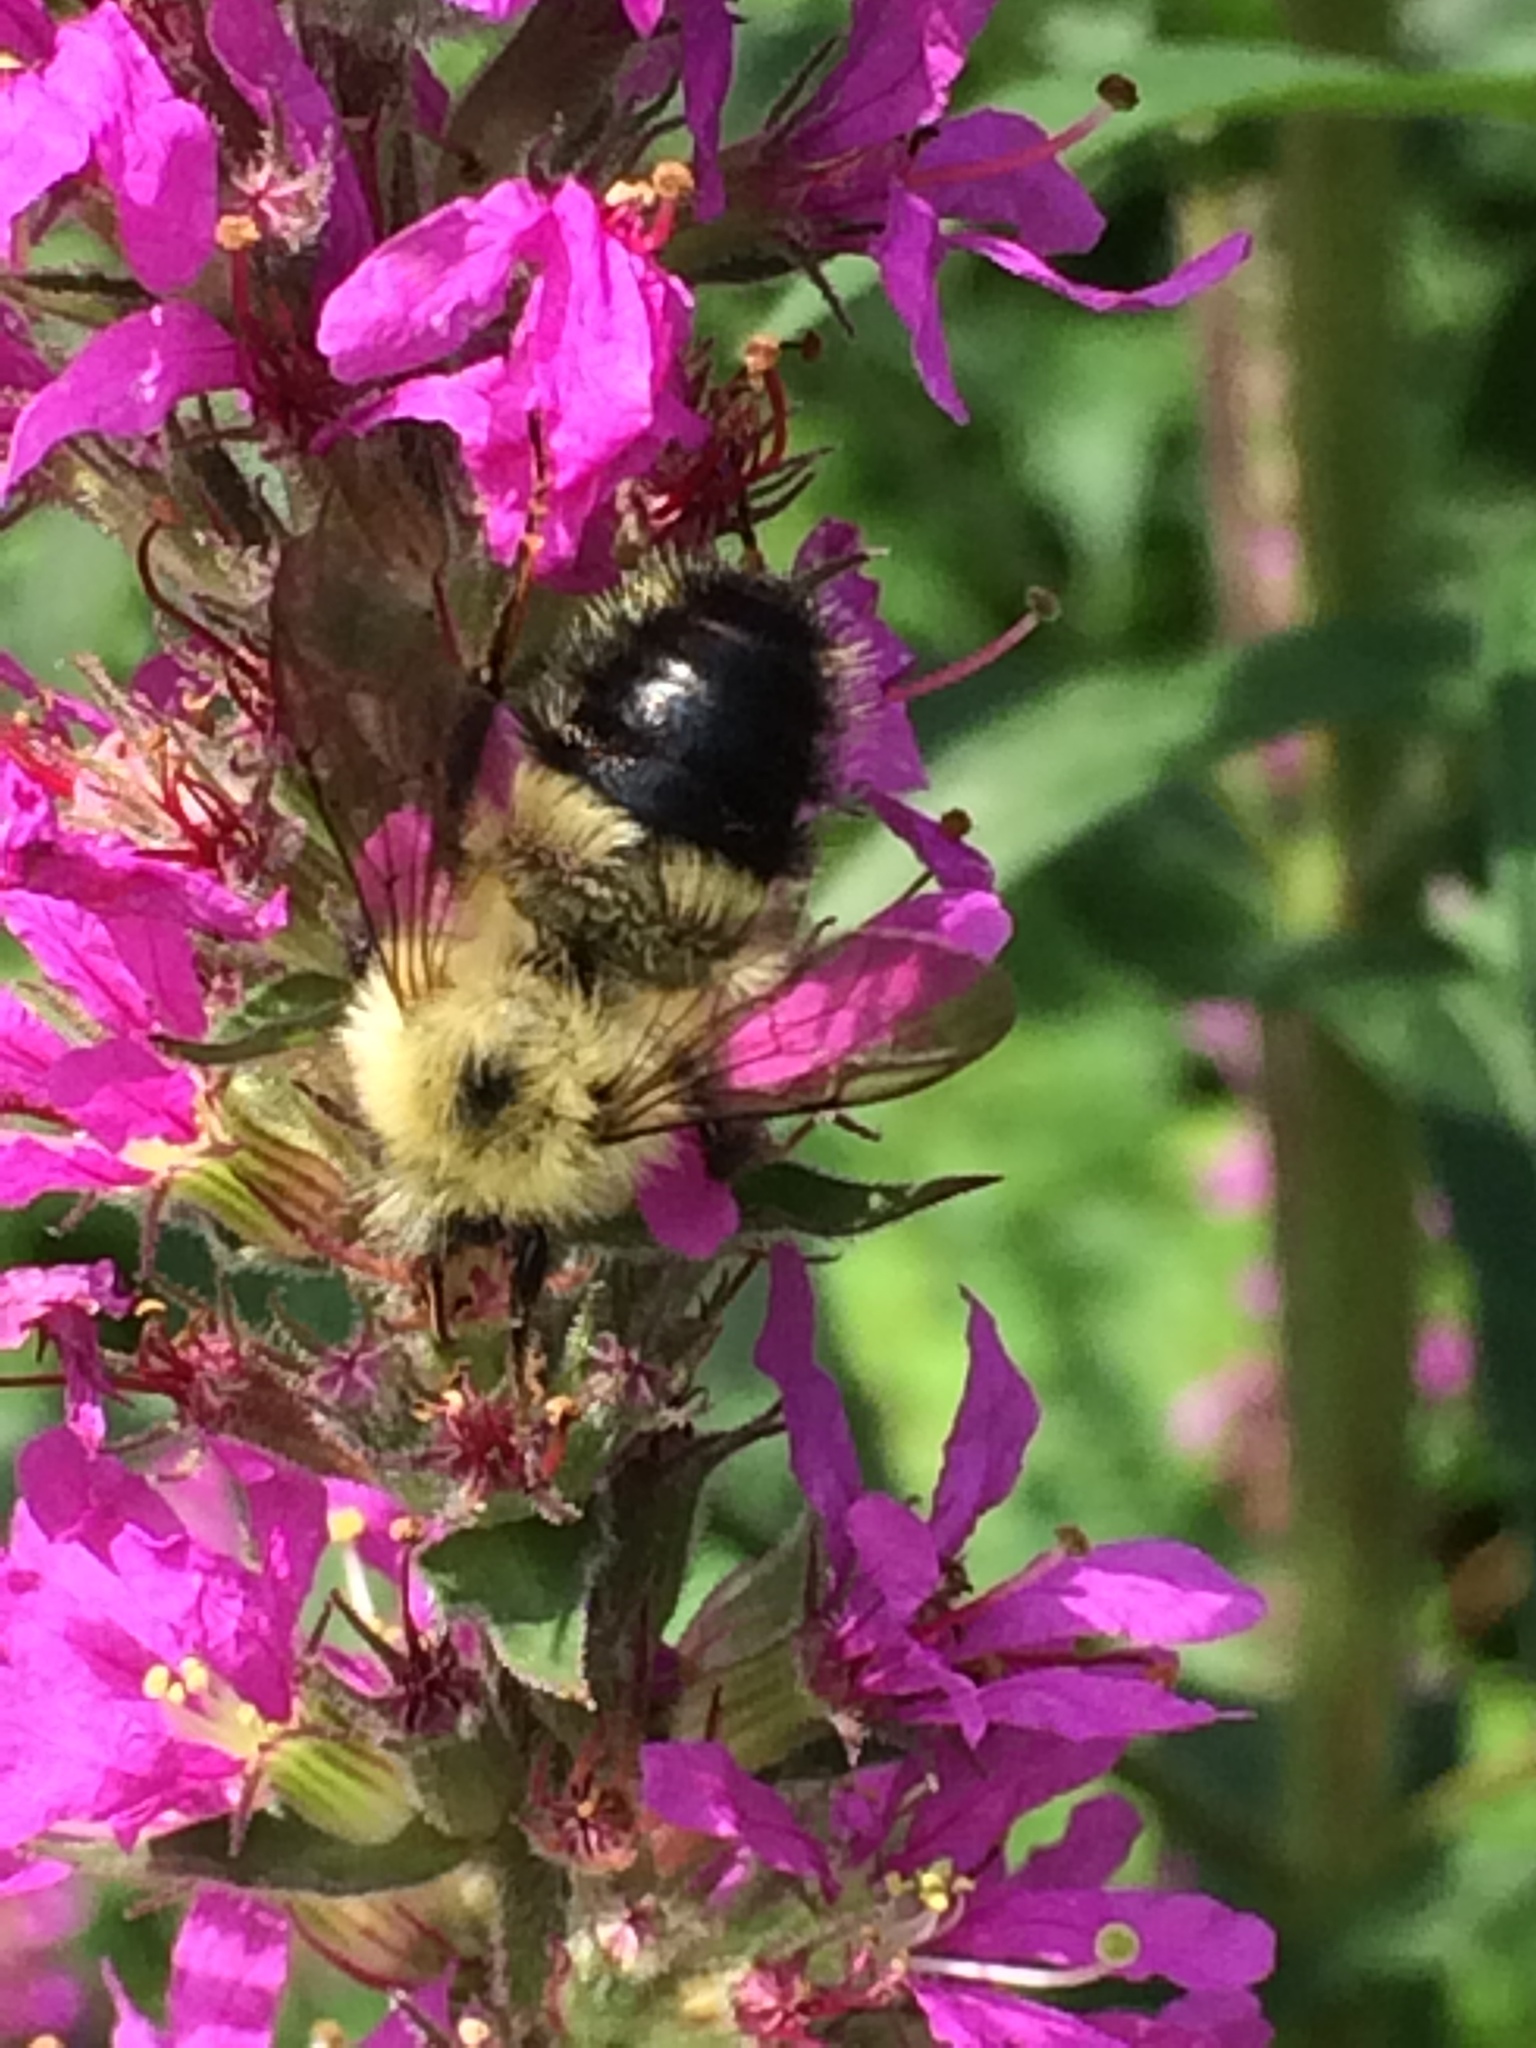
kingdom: Animalia
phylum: Arthropoda
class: Insecta
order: Hymenoptera
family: Apidae
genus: Bombus
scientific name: Bombus vagans
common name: Half-black bumble bee
